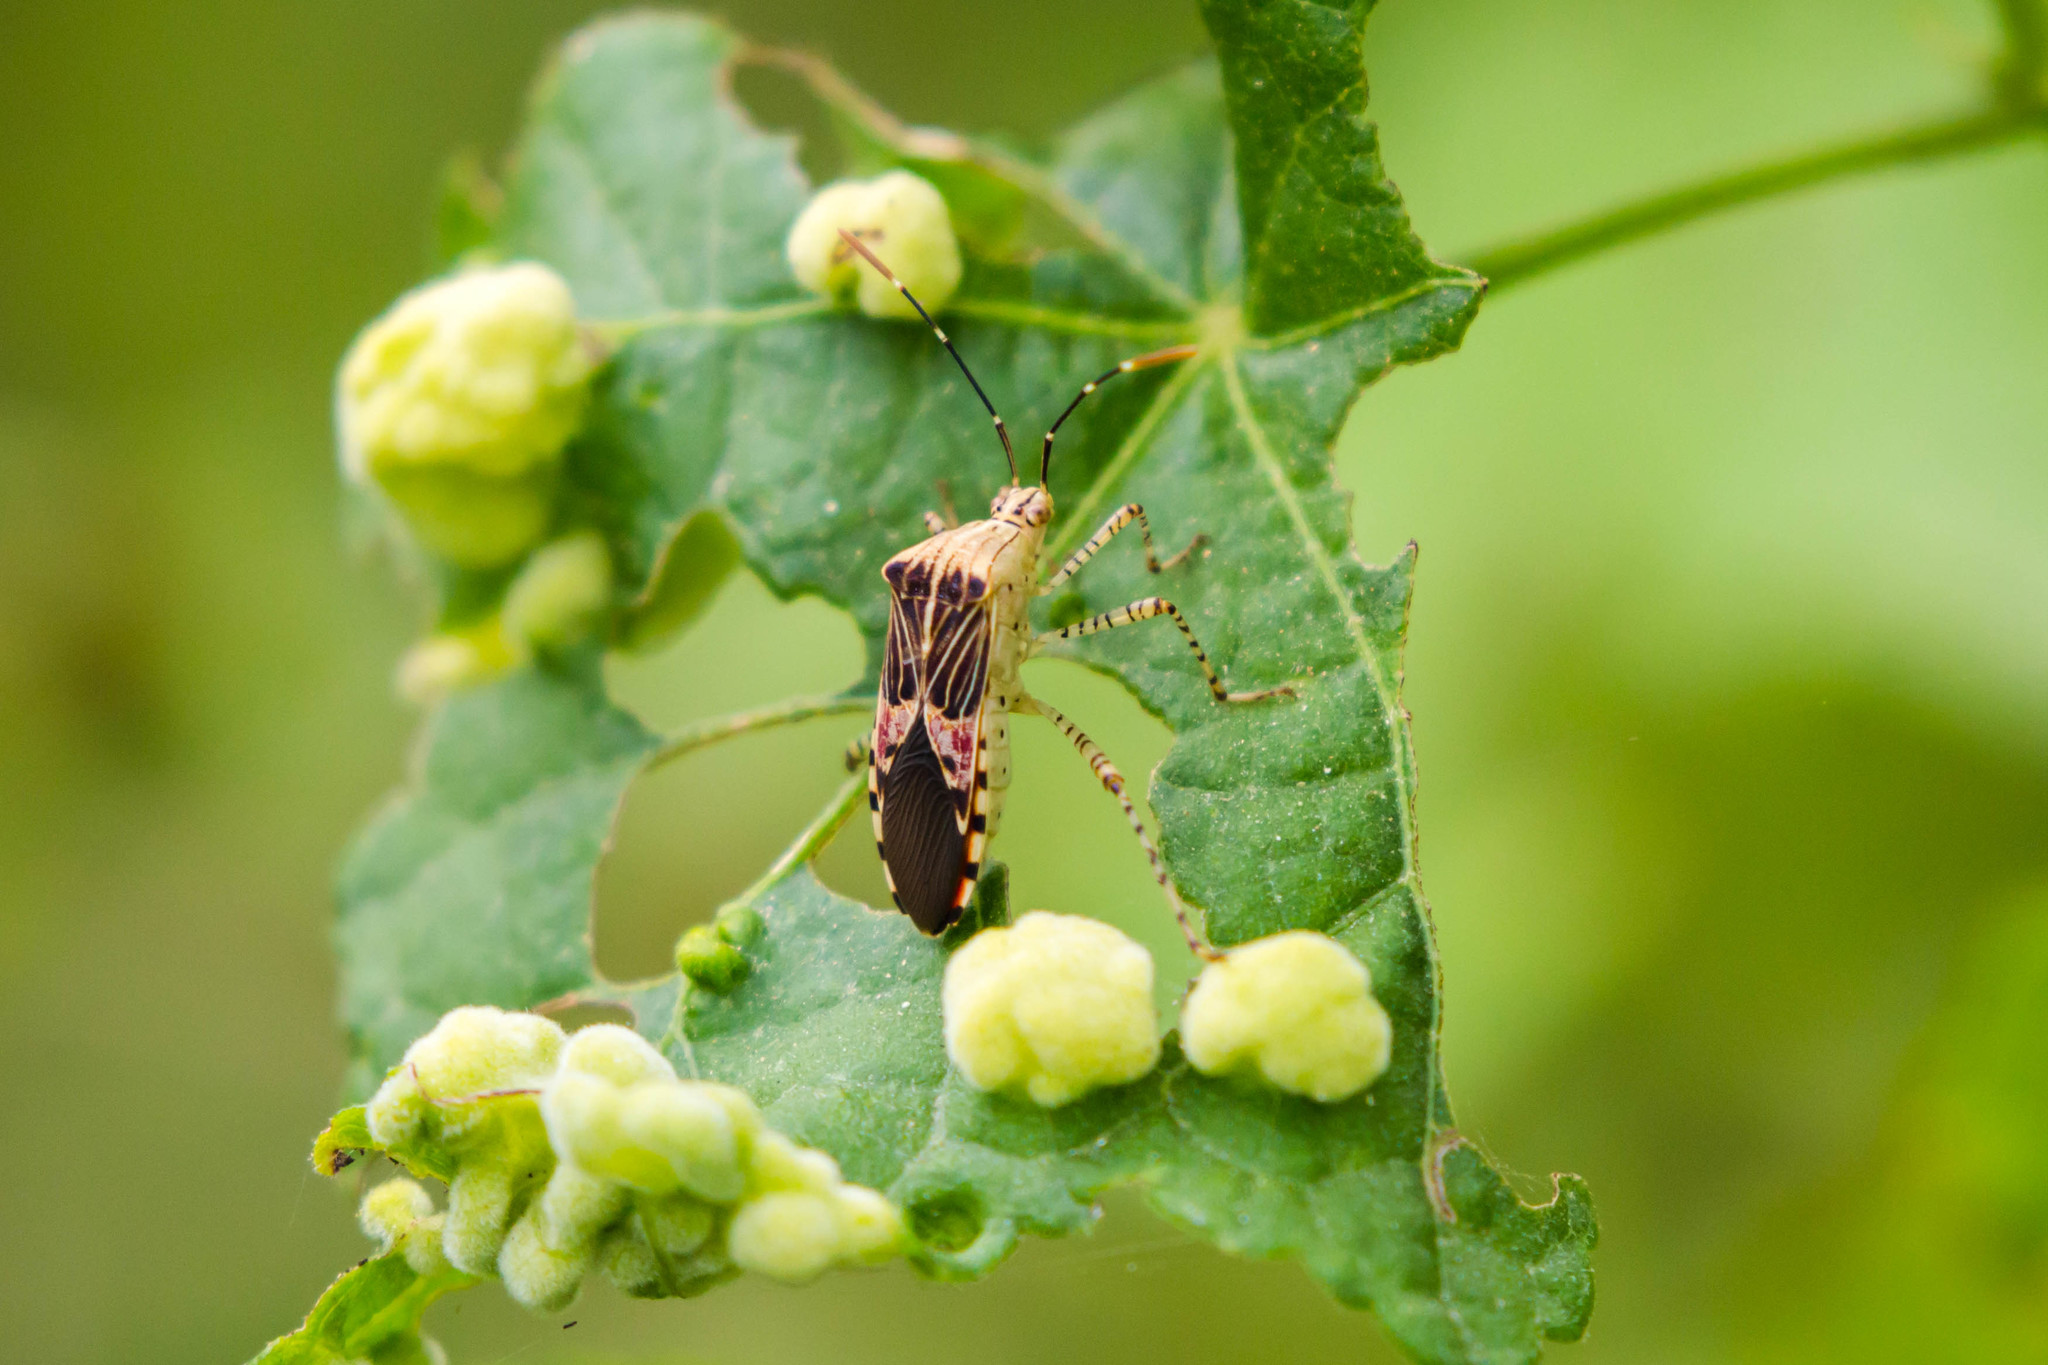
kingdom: Animalia
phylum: Arthropoda
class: Insecta
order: Hemiptera
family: Coreidae
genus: Hypselonotus
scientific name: Hypselonotus punctiventris
